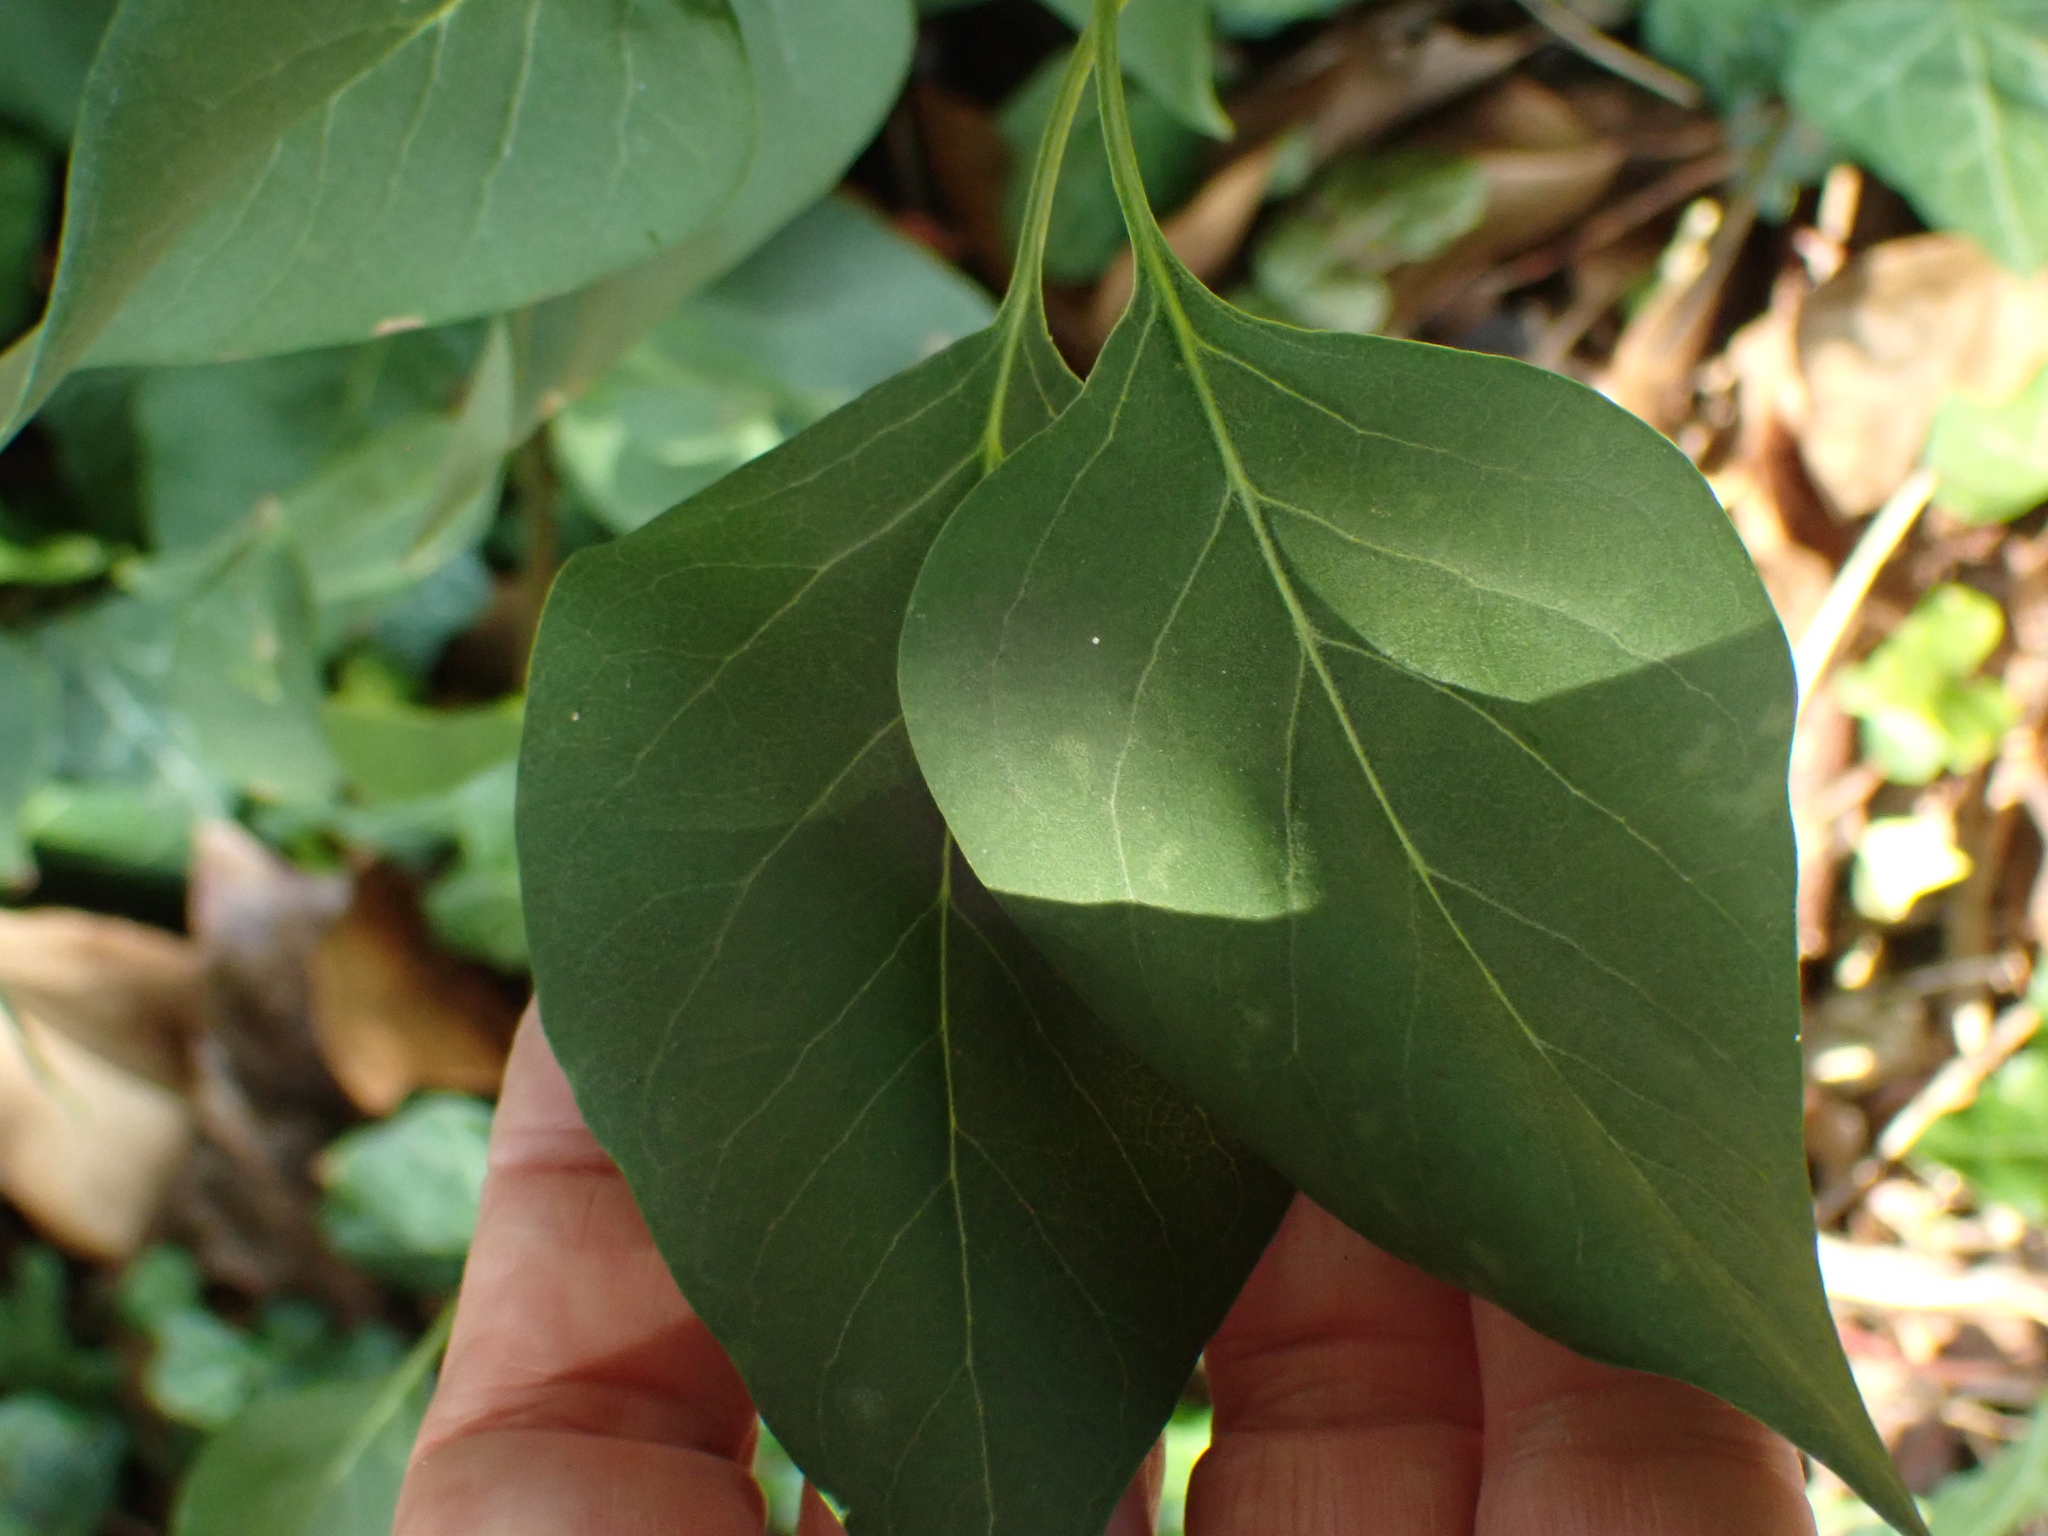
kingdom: Plantae
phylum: Tracheophyta
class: Magnoliopsida
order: Lamiales
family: Oleaceae
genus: Syringa
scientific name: Syringa vulgaris
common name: Common lilac
